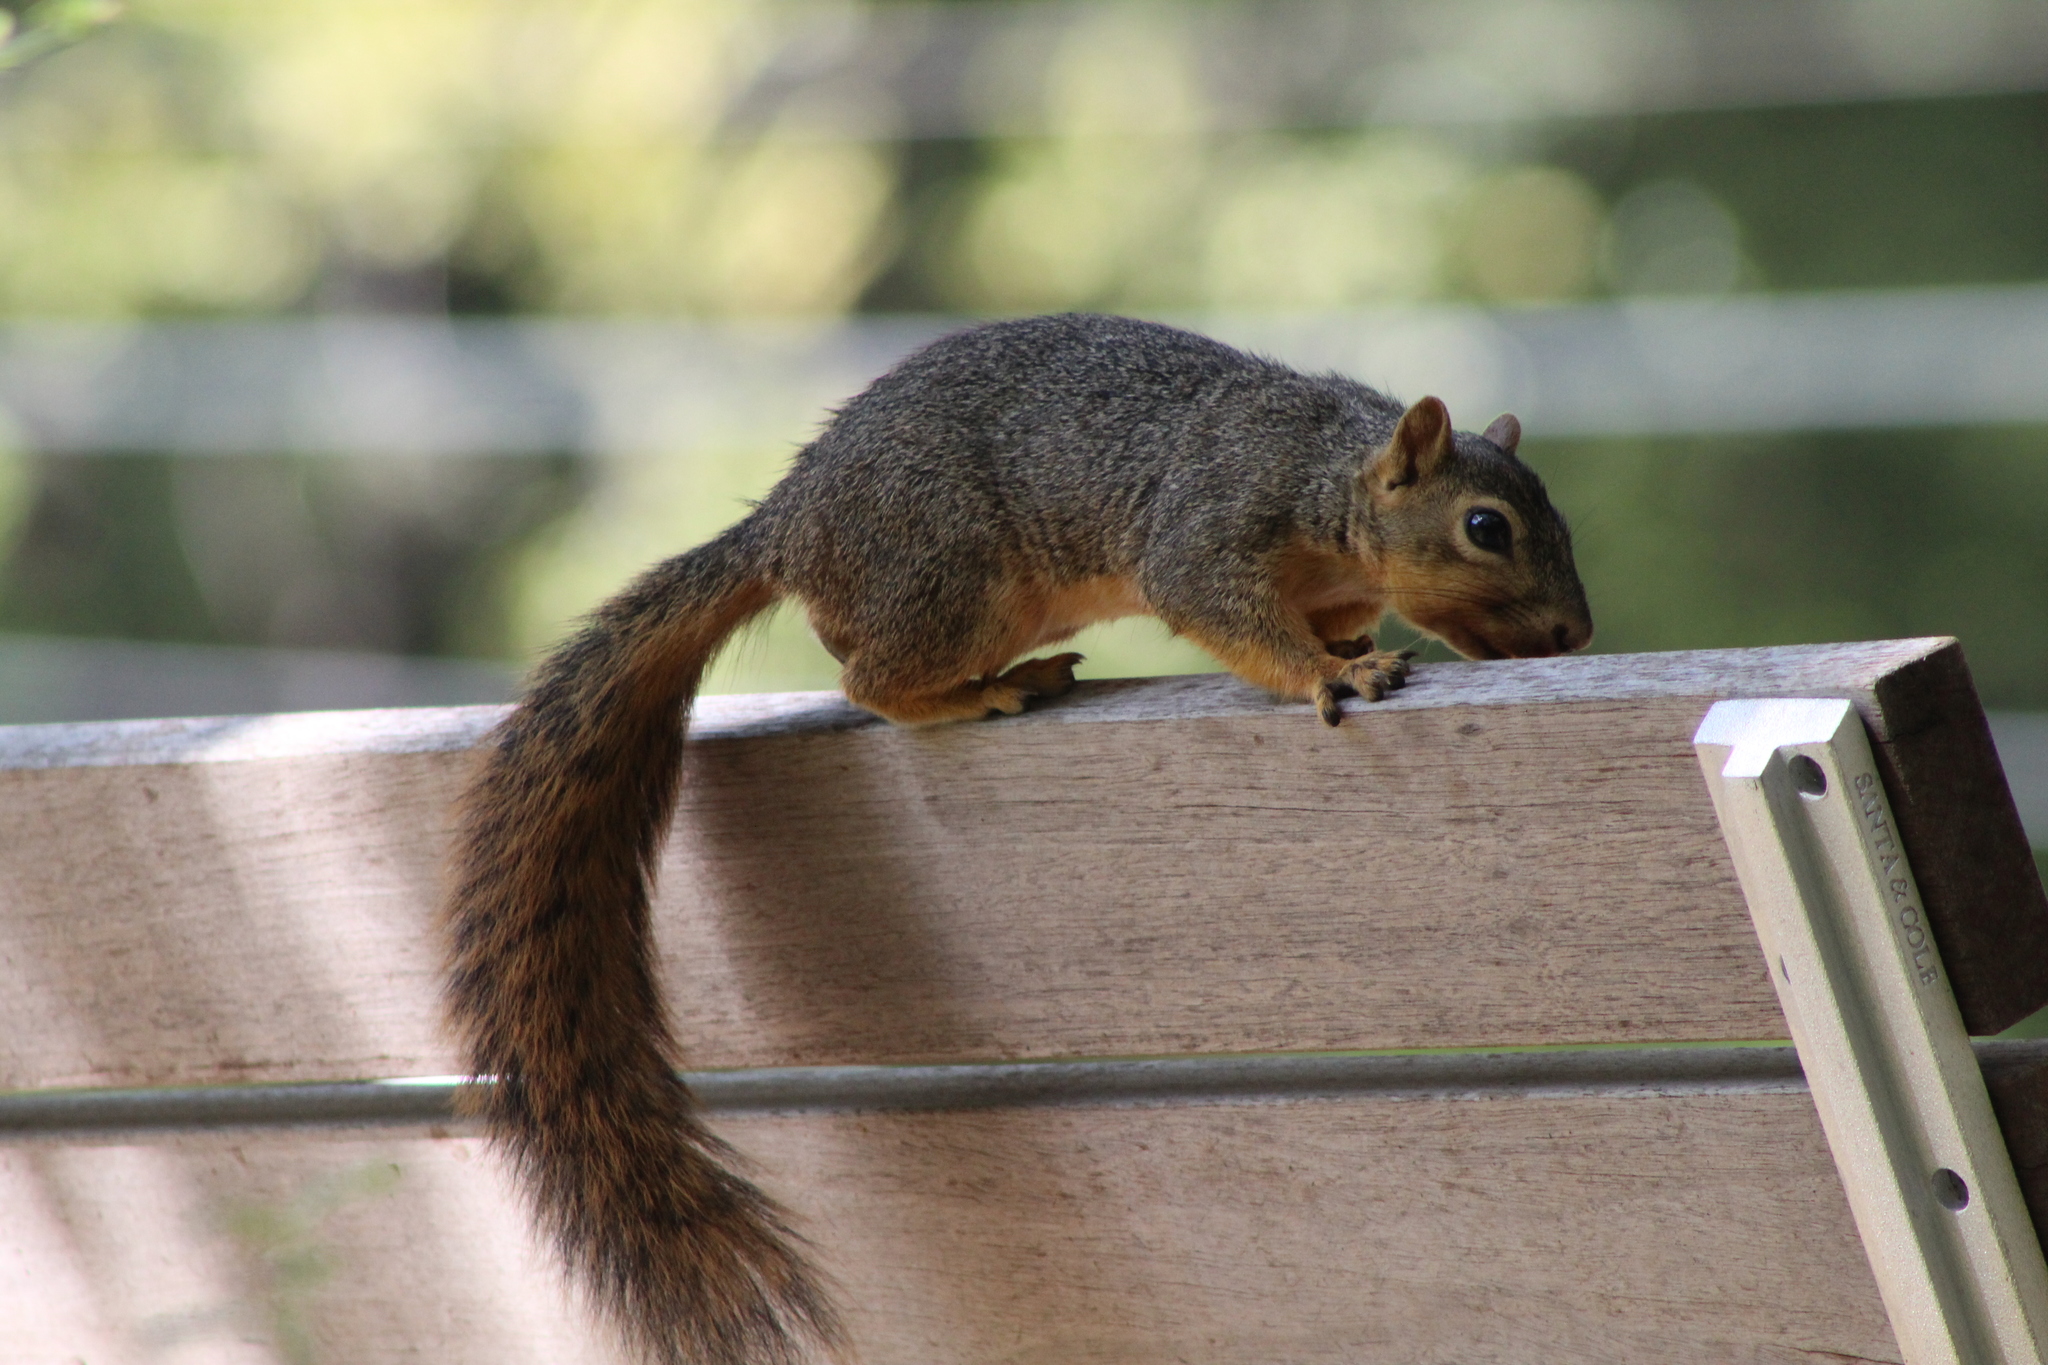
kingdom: Animalia
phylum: Chordata
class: Mammalia
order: Rodentia
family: Sciuridae
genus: Sciurus
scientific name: Sciurus niger
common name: Fox squirrel
